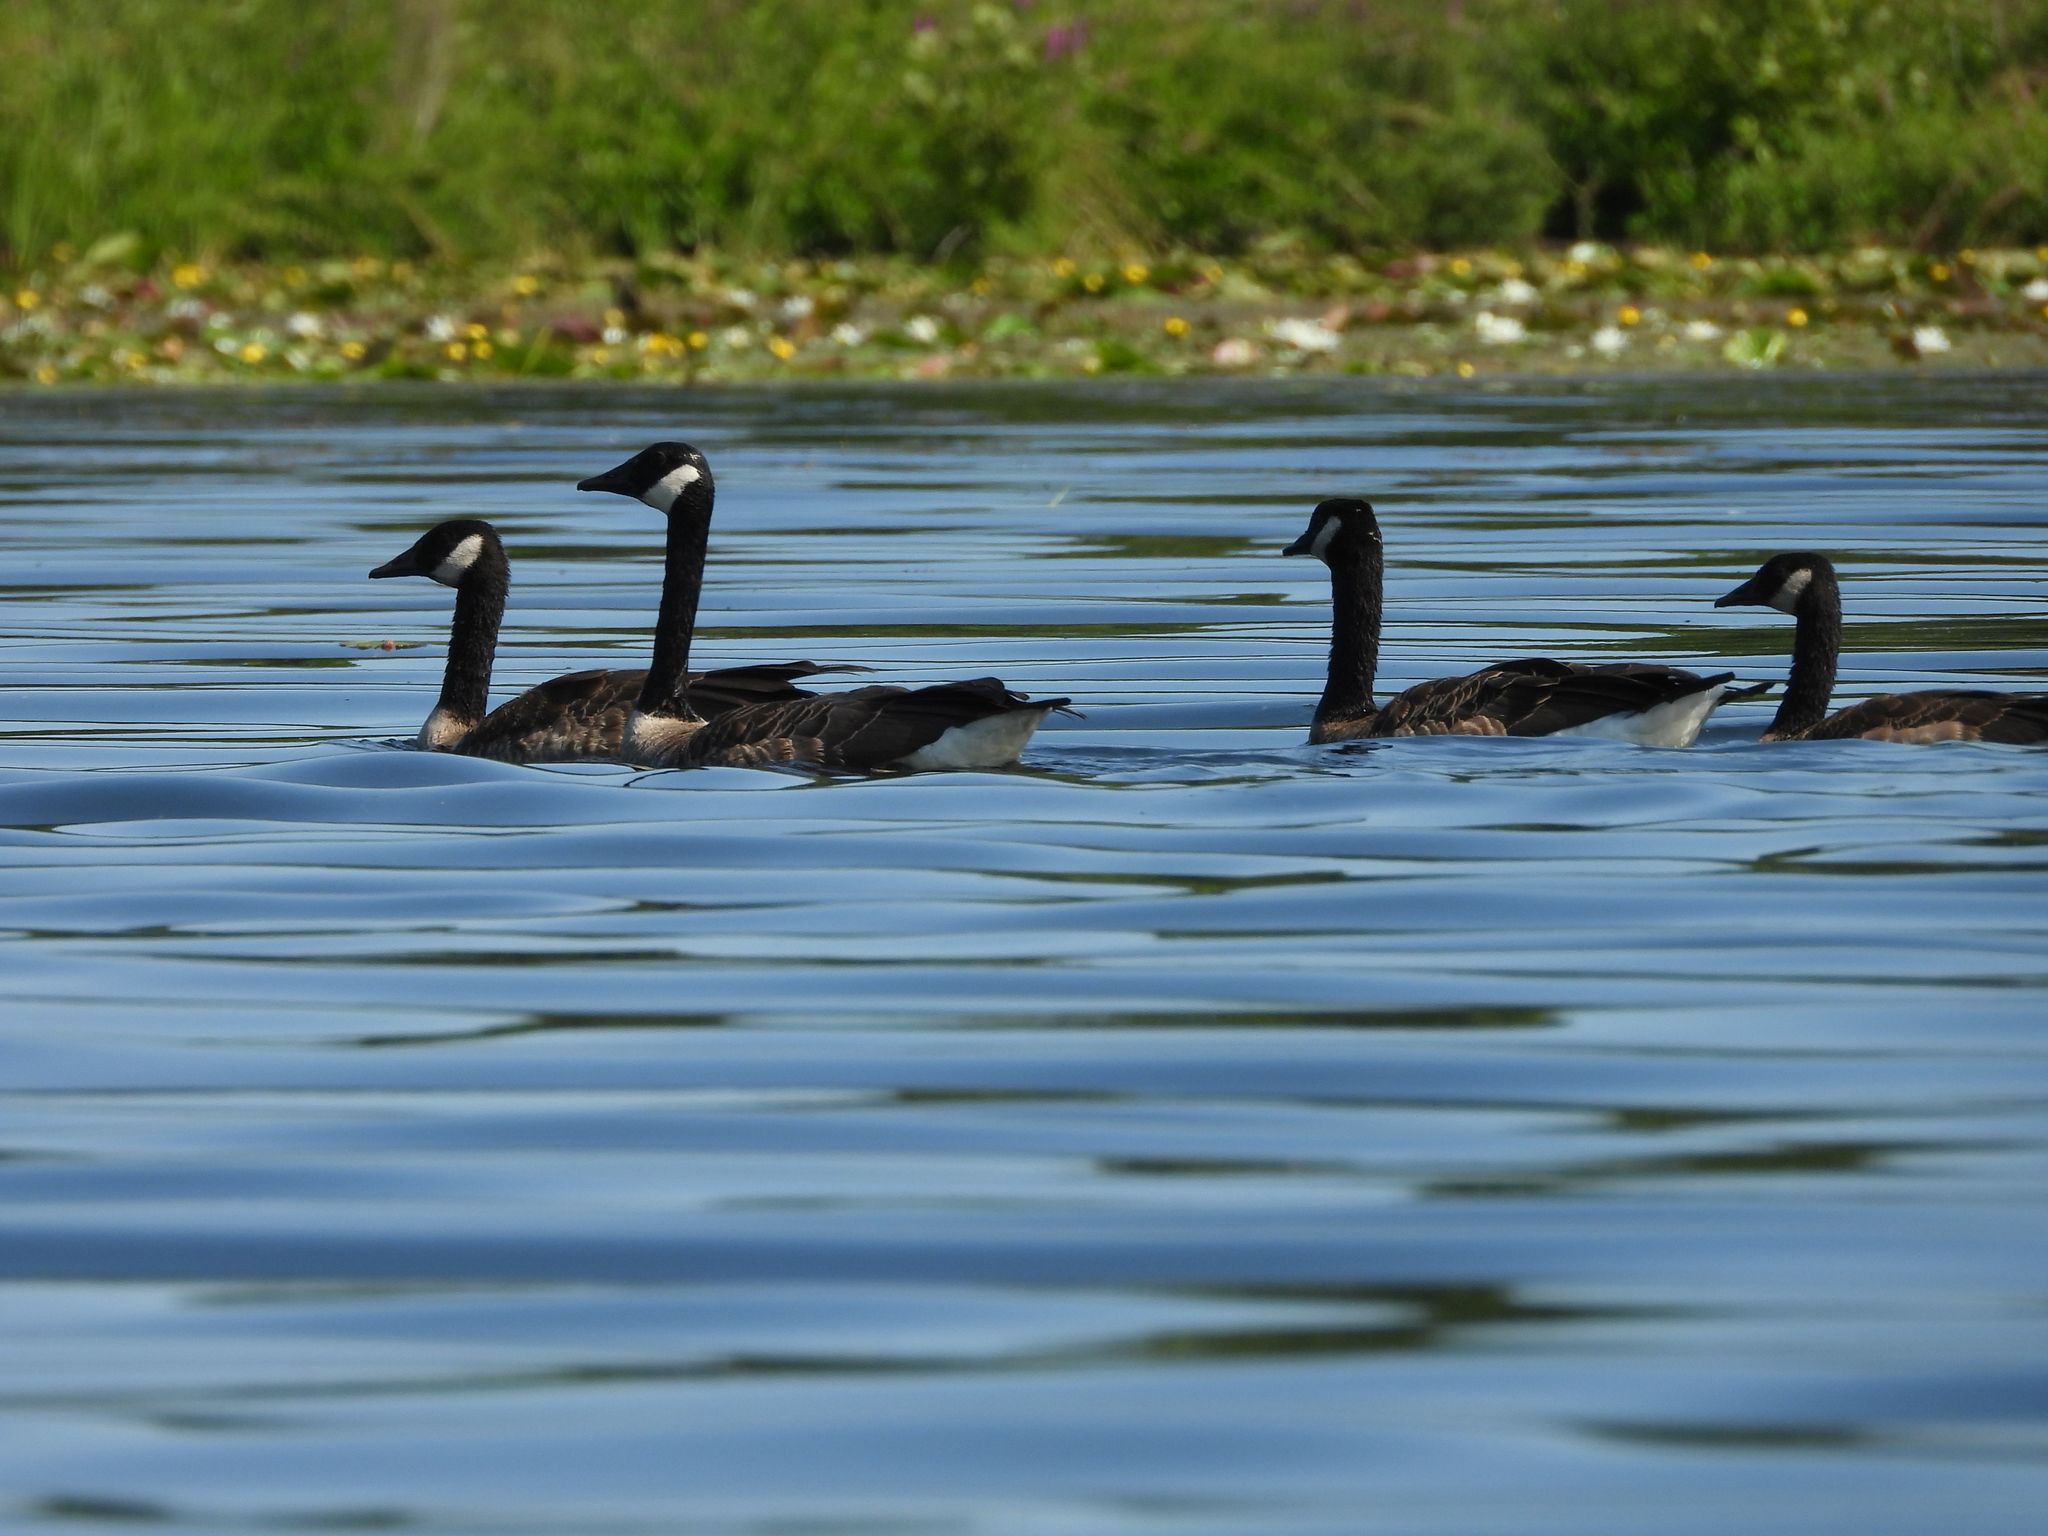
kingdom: Animalia
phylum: Chordata
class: Aves
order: Anseriformes
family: Anatidae
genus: Branta
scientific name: Branta canadensis
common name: Canada goose
